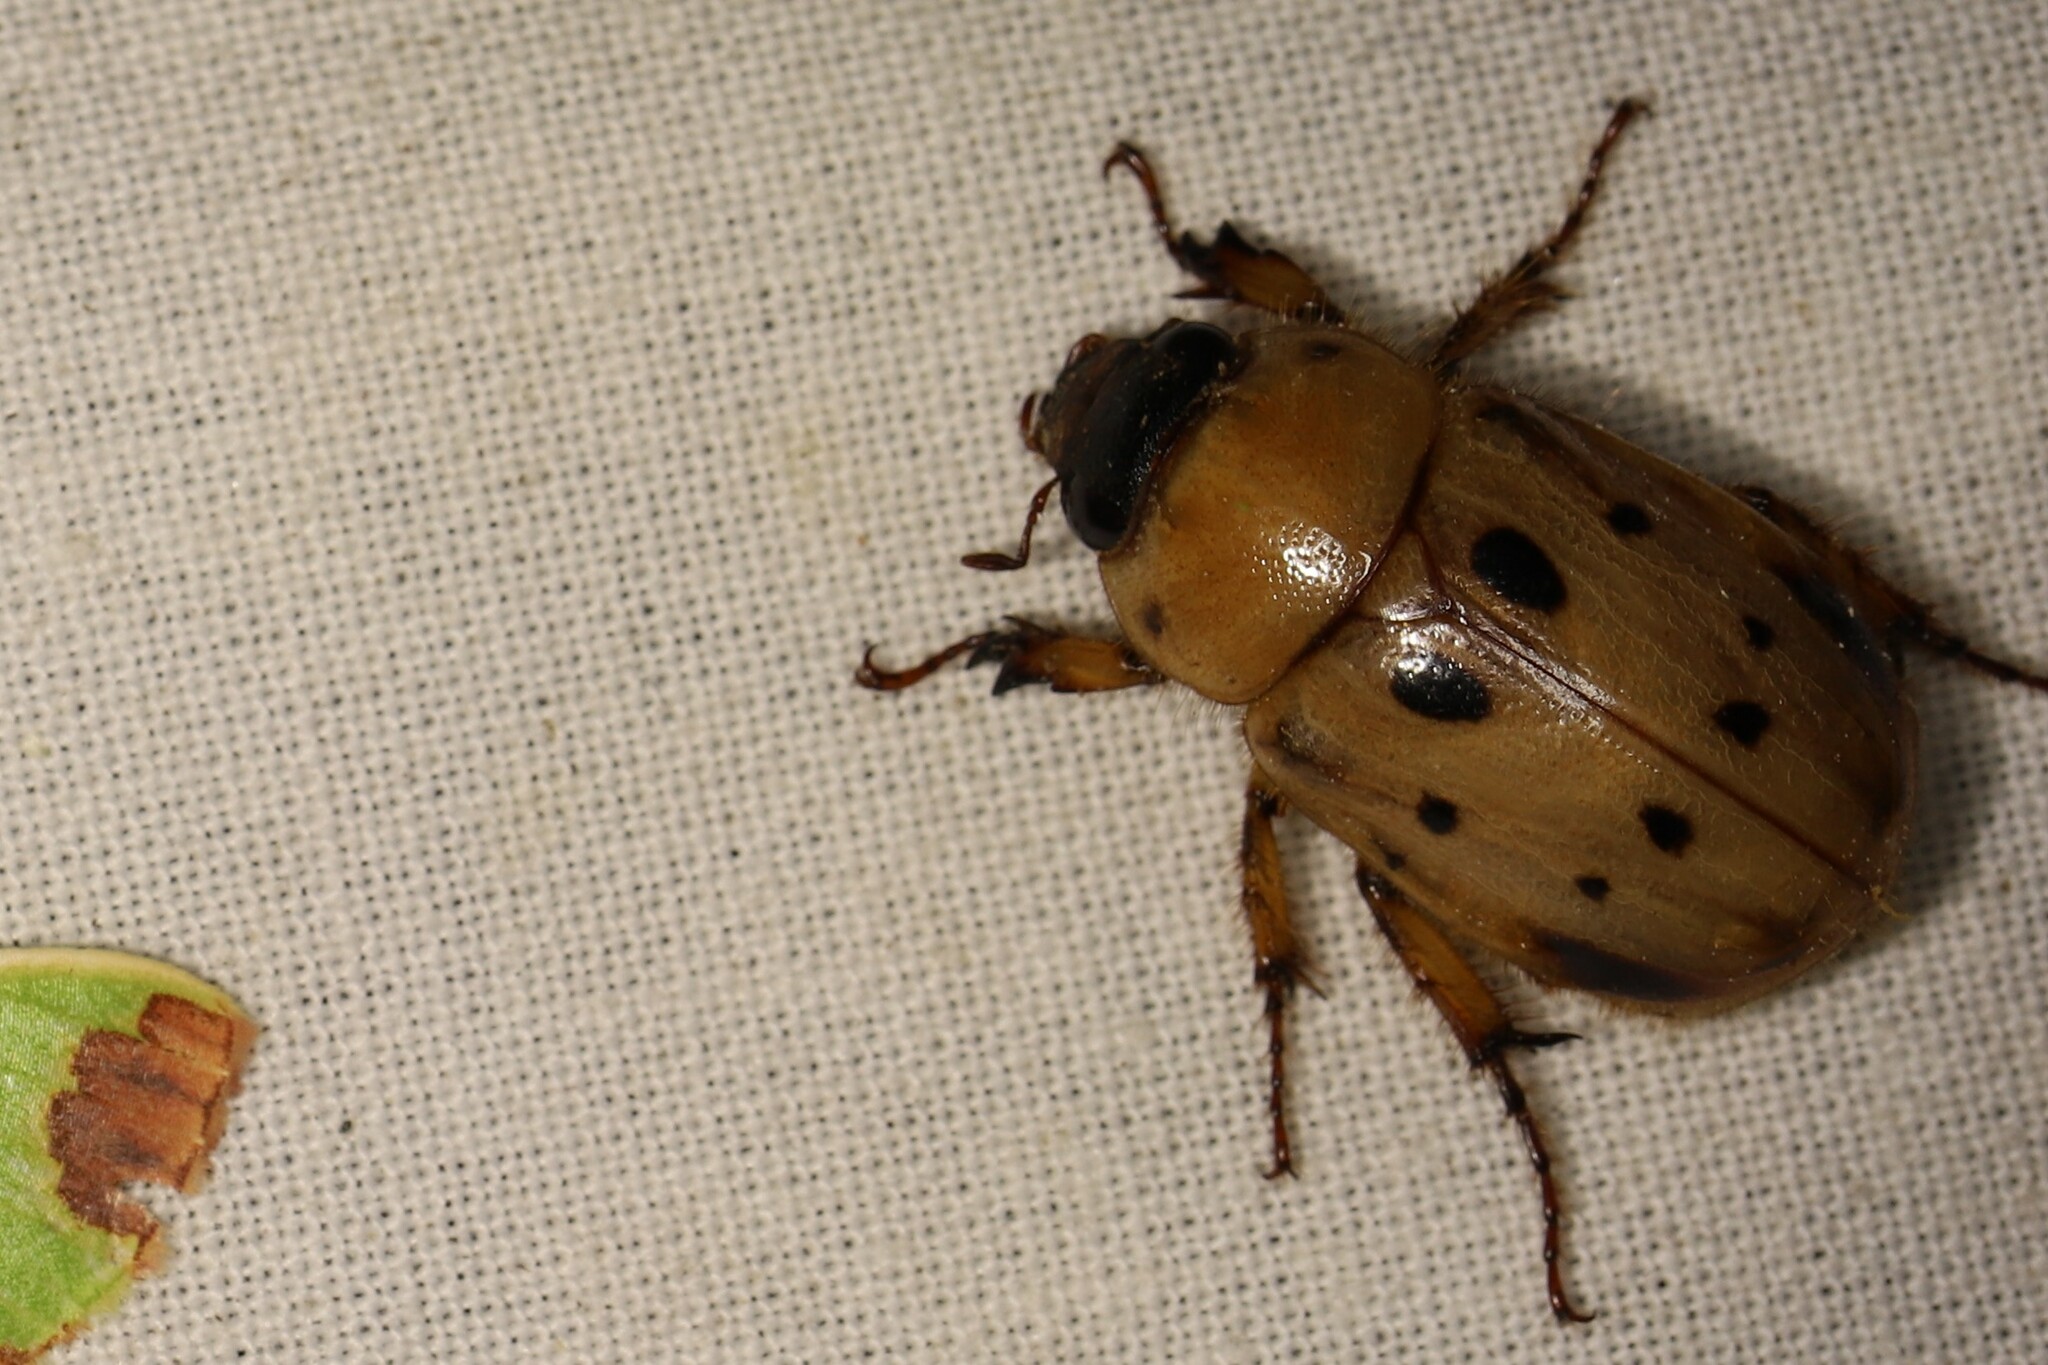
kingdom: Animalia
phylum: Arthropoda
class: Insecta
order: Coleoptera
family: Scarabaeidae
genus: Cyclocephala
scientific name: Cyclocephala brittoni
